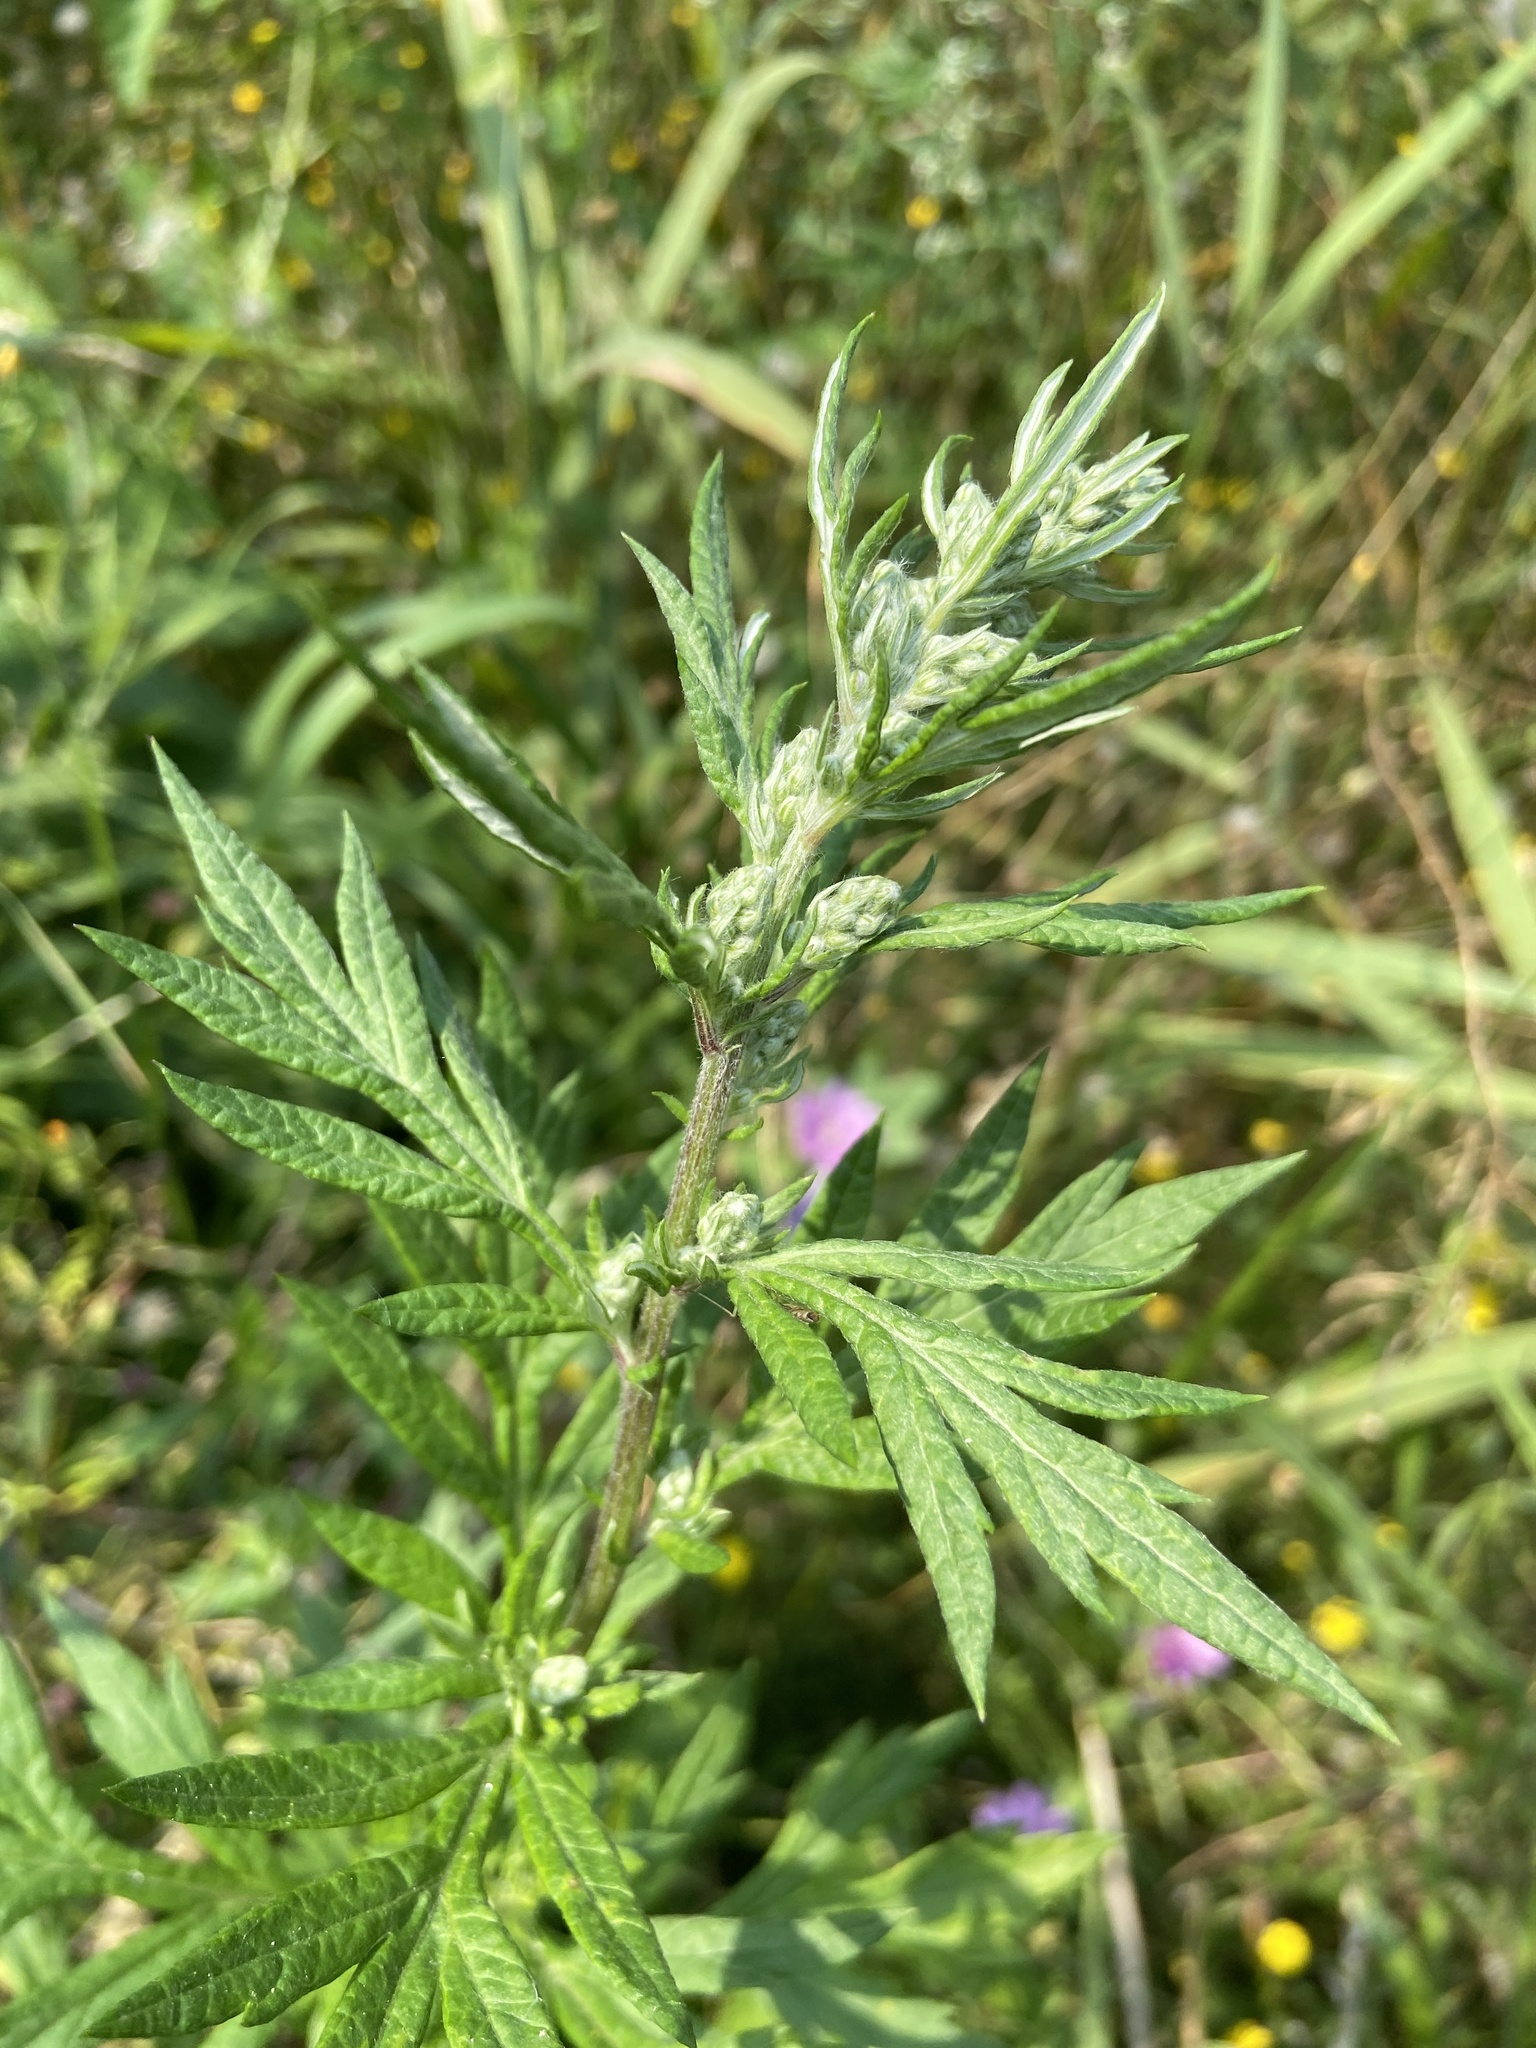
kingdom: Plantae
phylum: Tracheophyta
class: Magnoliopsida
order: Asterales
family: Asteraceae
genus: Artemisia
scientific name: Artemisia vulgaris
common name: Mugwort
